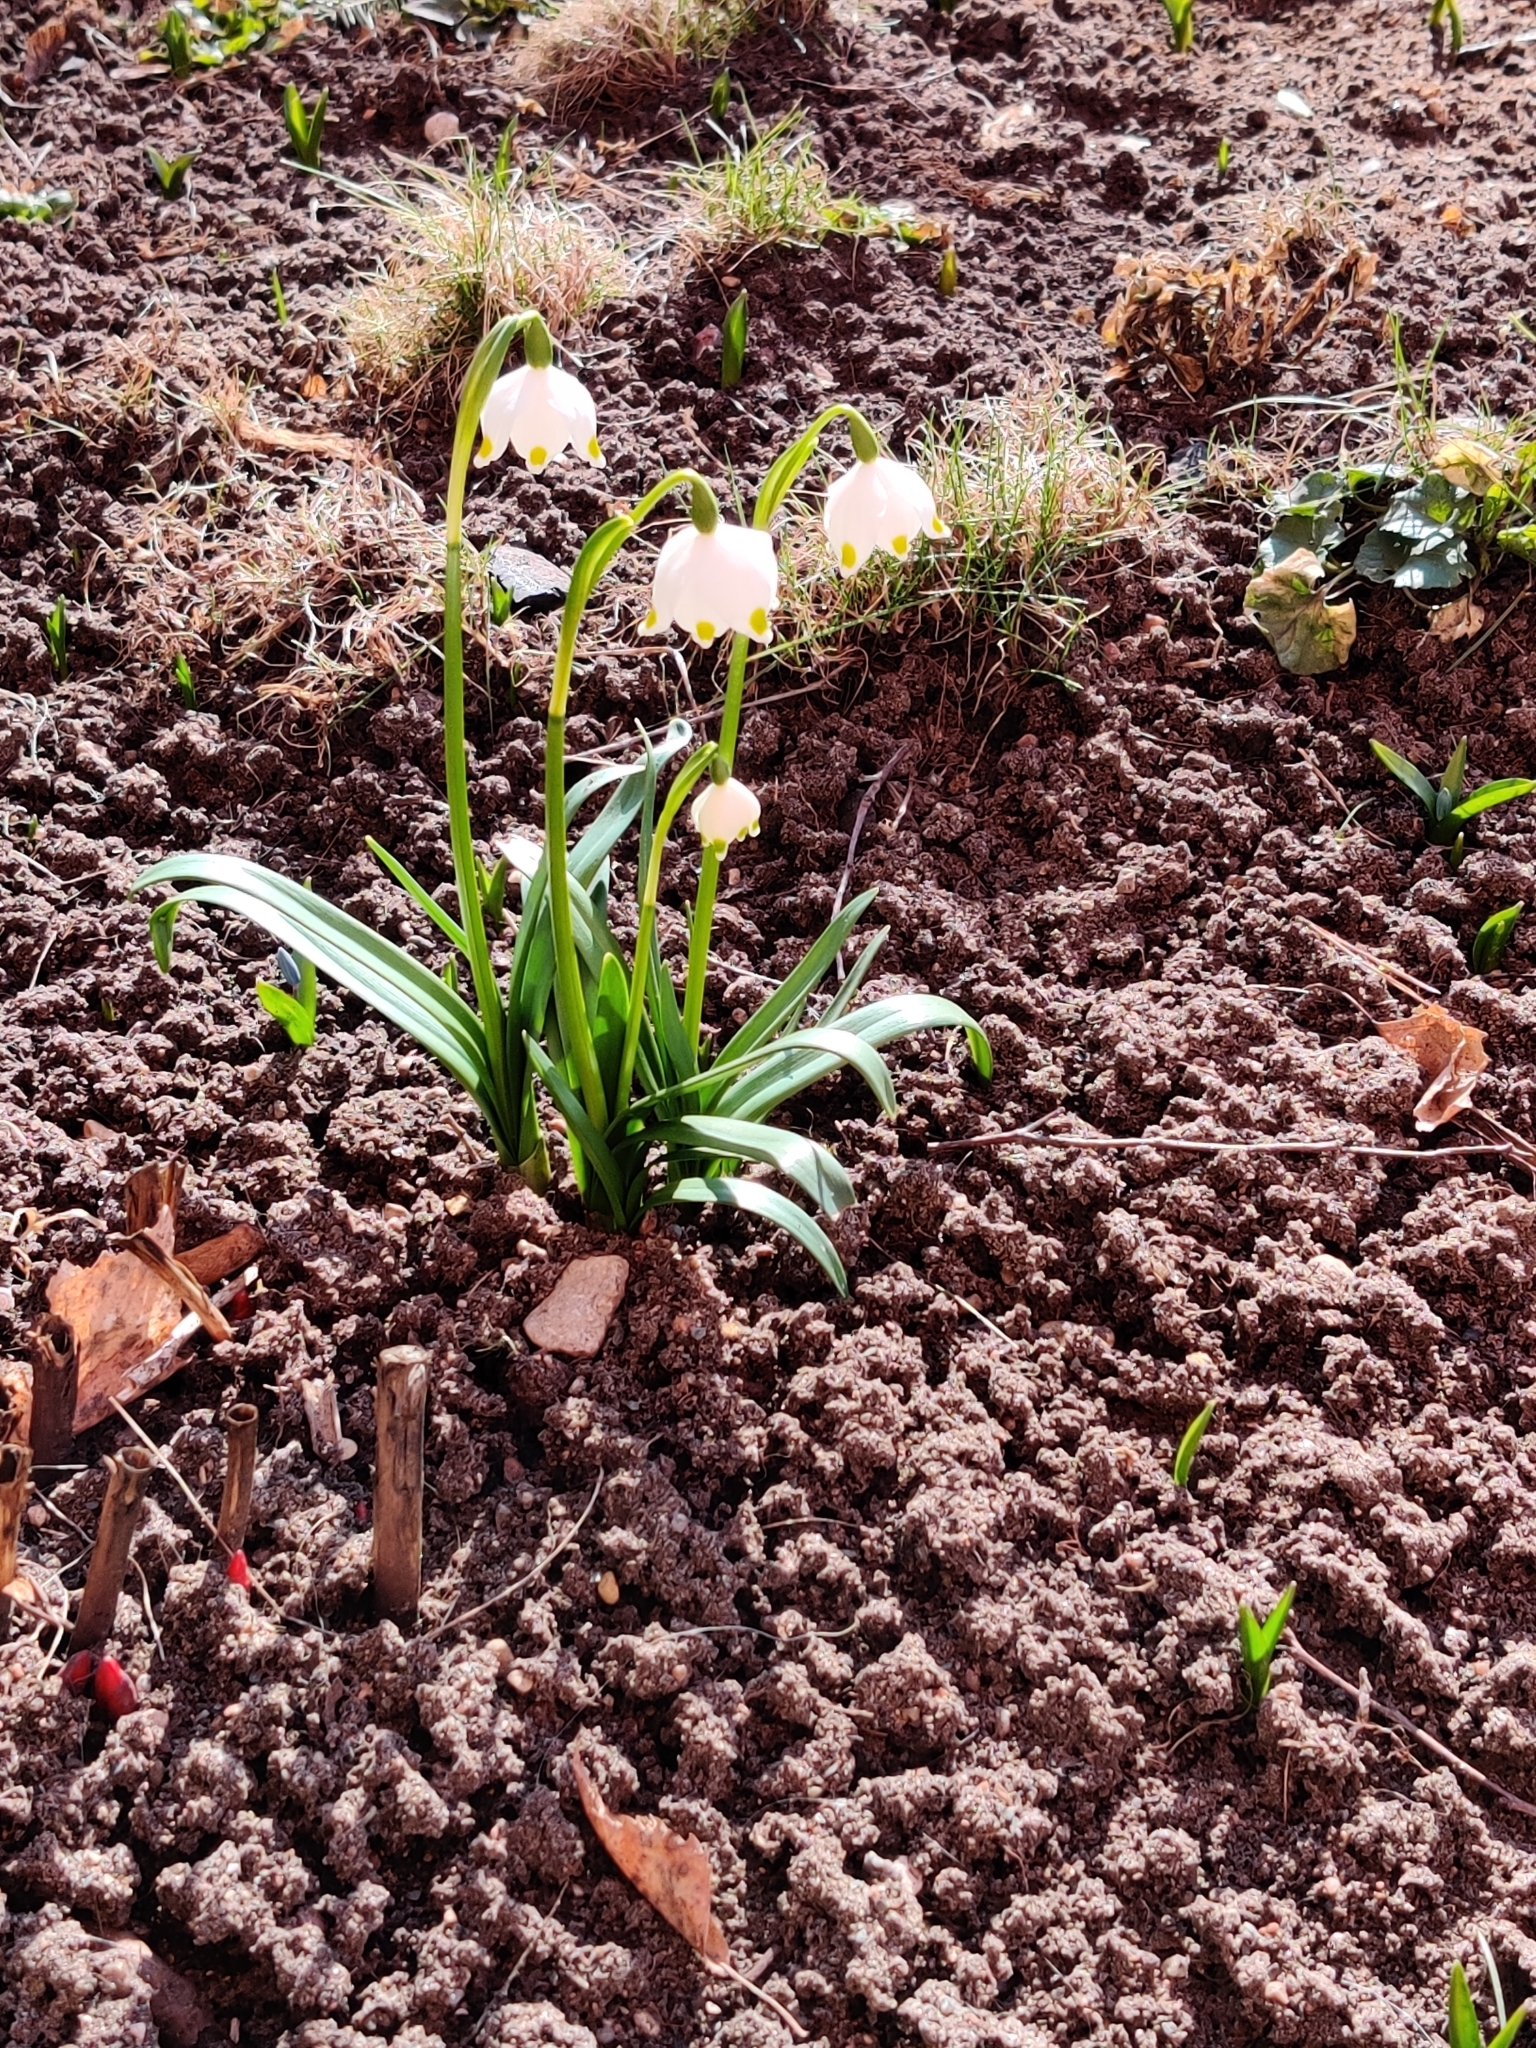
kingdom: Plantae
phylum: Tracheophyta
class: Liliopsida
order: Asparagales
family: Amaryllidaceae
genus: Leucojum
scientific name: Leucojum vernum
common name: Spring snowflake
